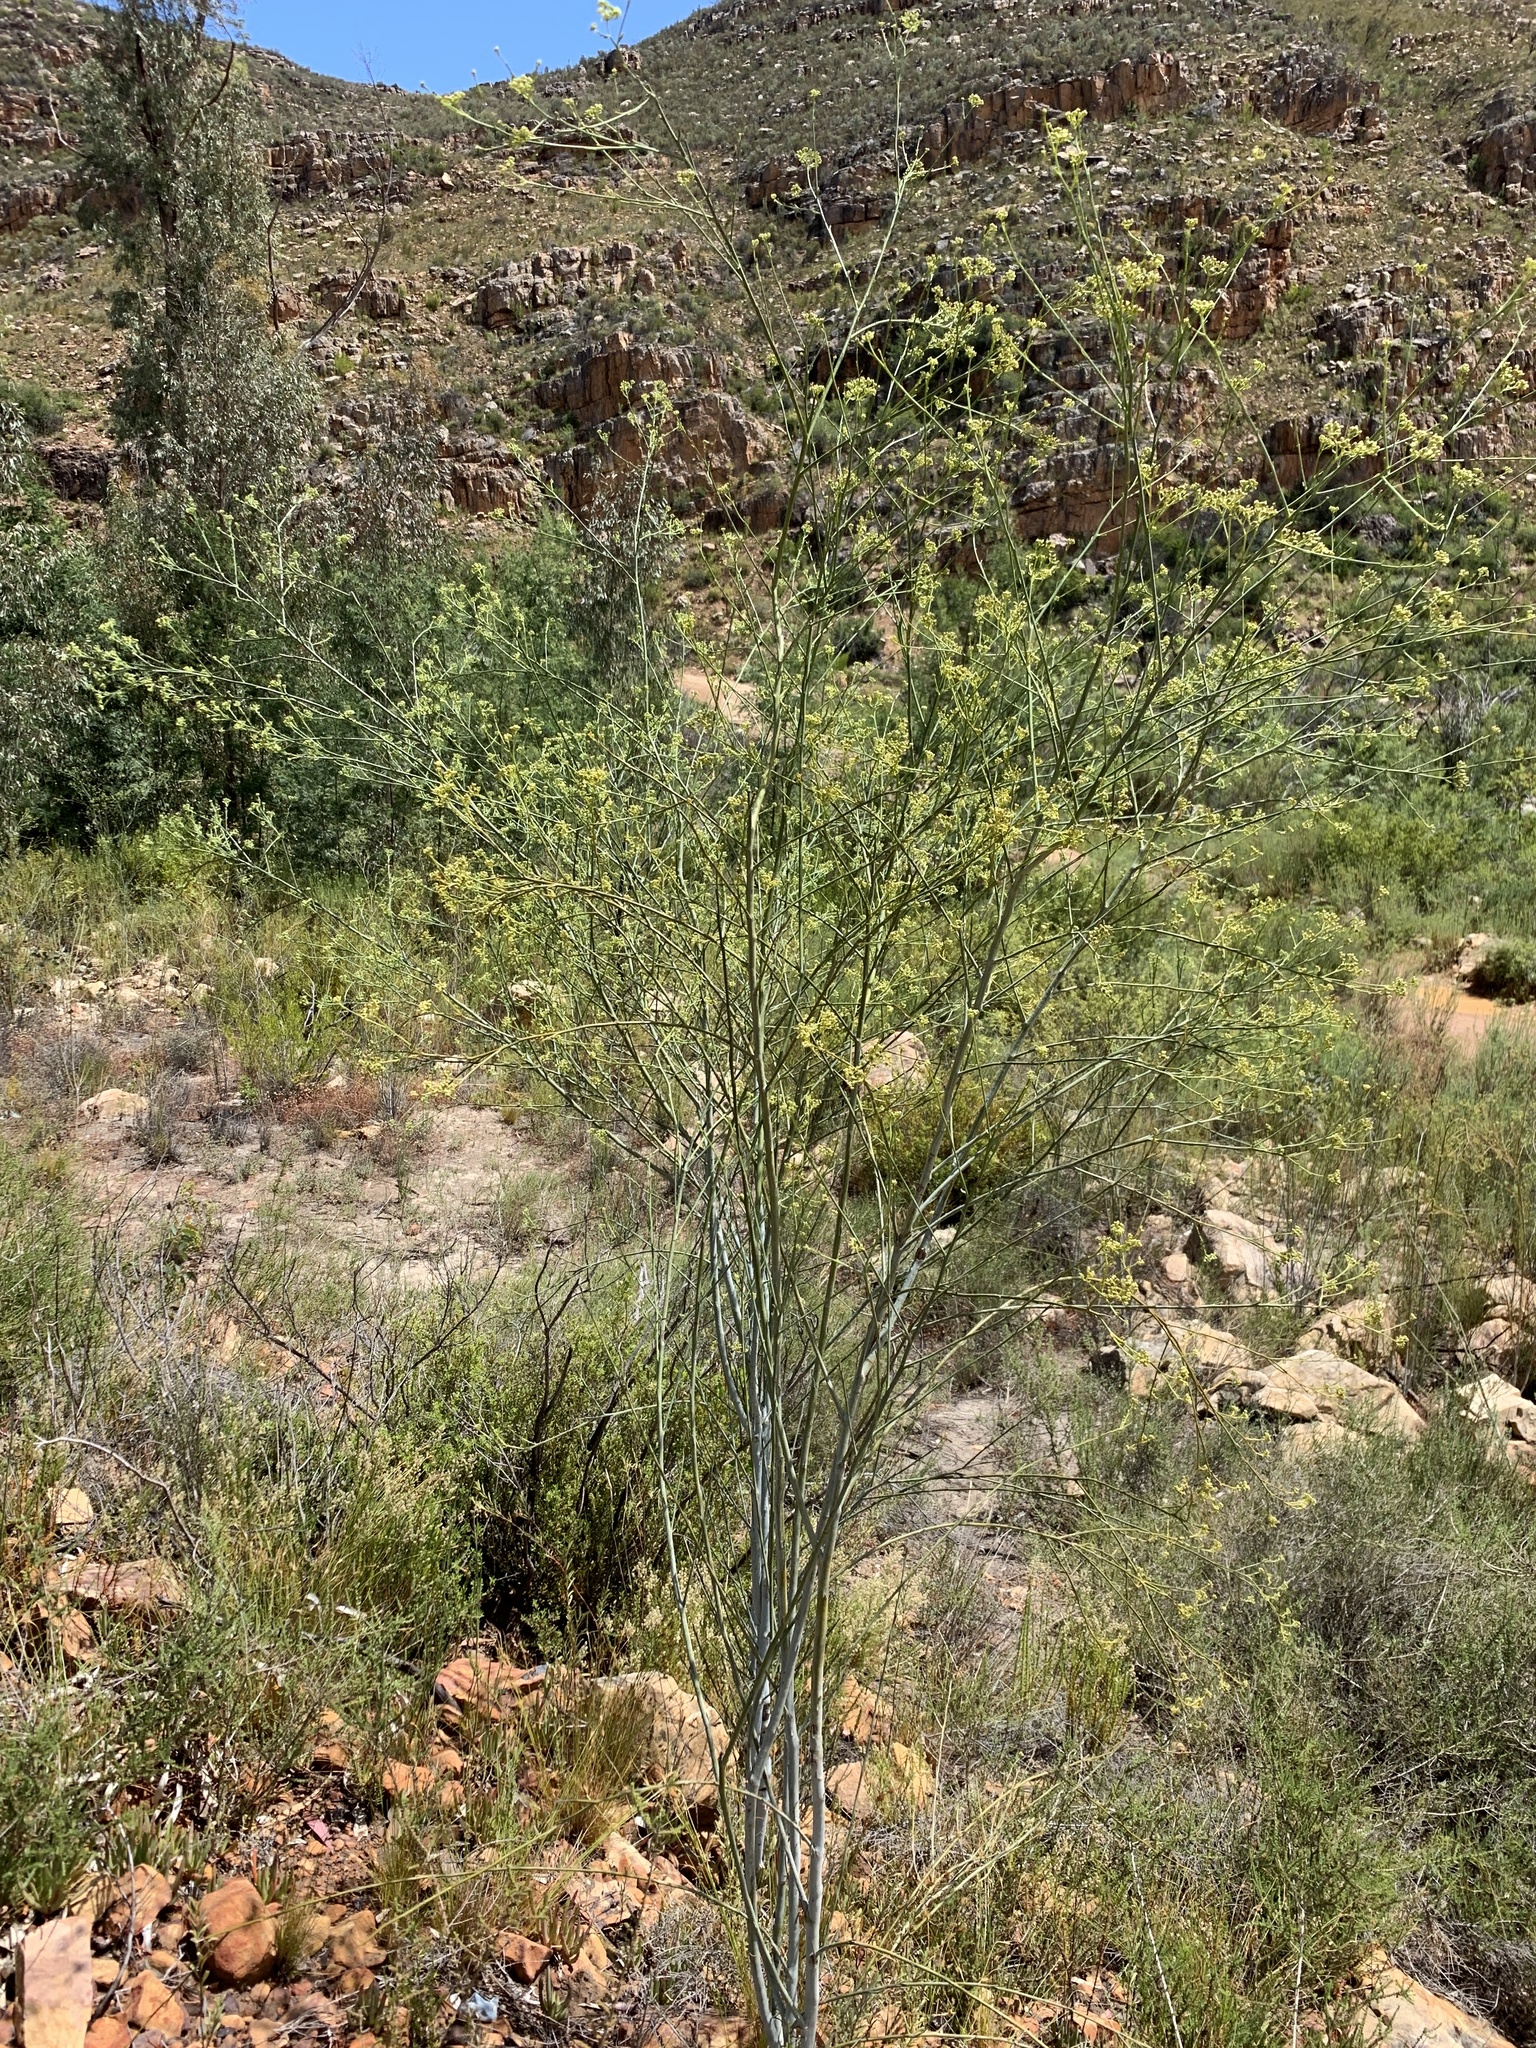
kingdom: Plantae
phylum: Tracheophyta
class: Magnoliopsida
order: Santalales
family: Thesiaceae
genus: Thesium
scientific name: Thesium strictum
